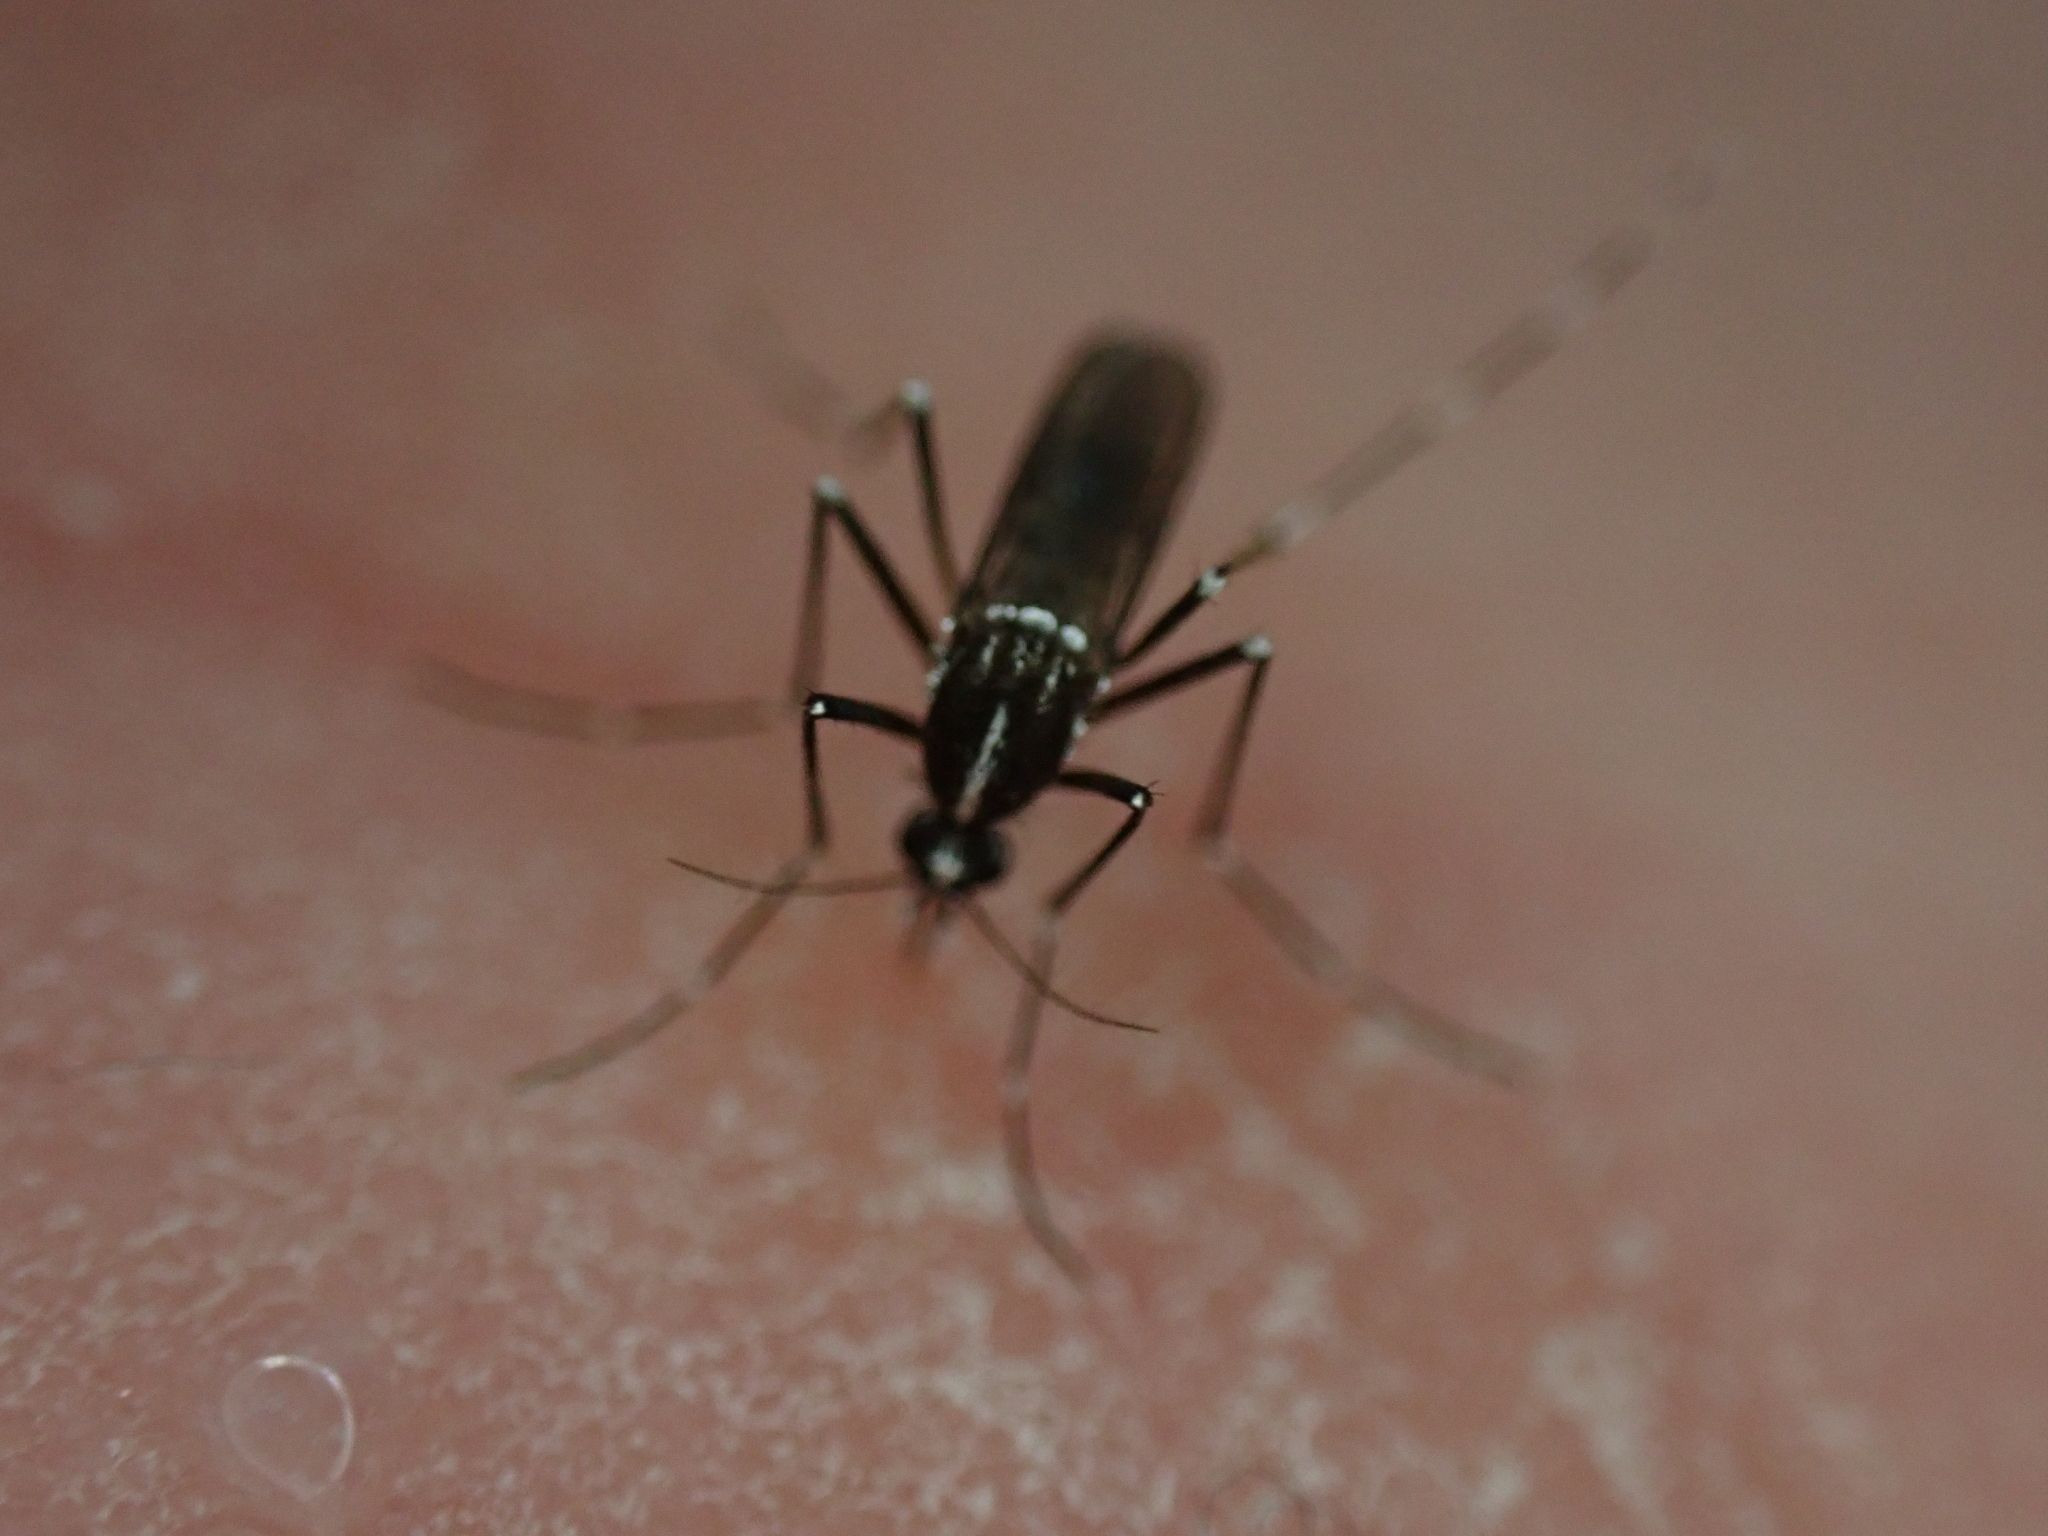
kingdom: Animalia
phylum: Arthropoda
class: Insecta
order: Diptera
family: Culicidae
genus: Aedes
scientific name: Aedes albopictus
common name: Tiger mosquito
